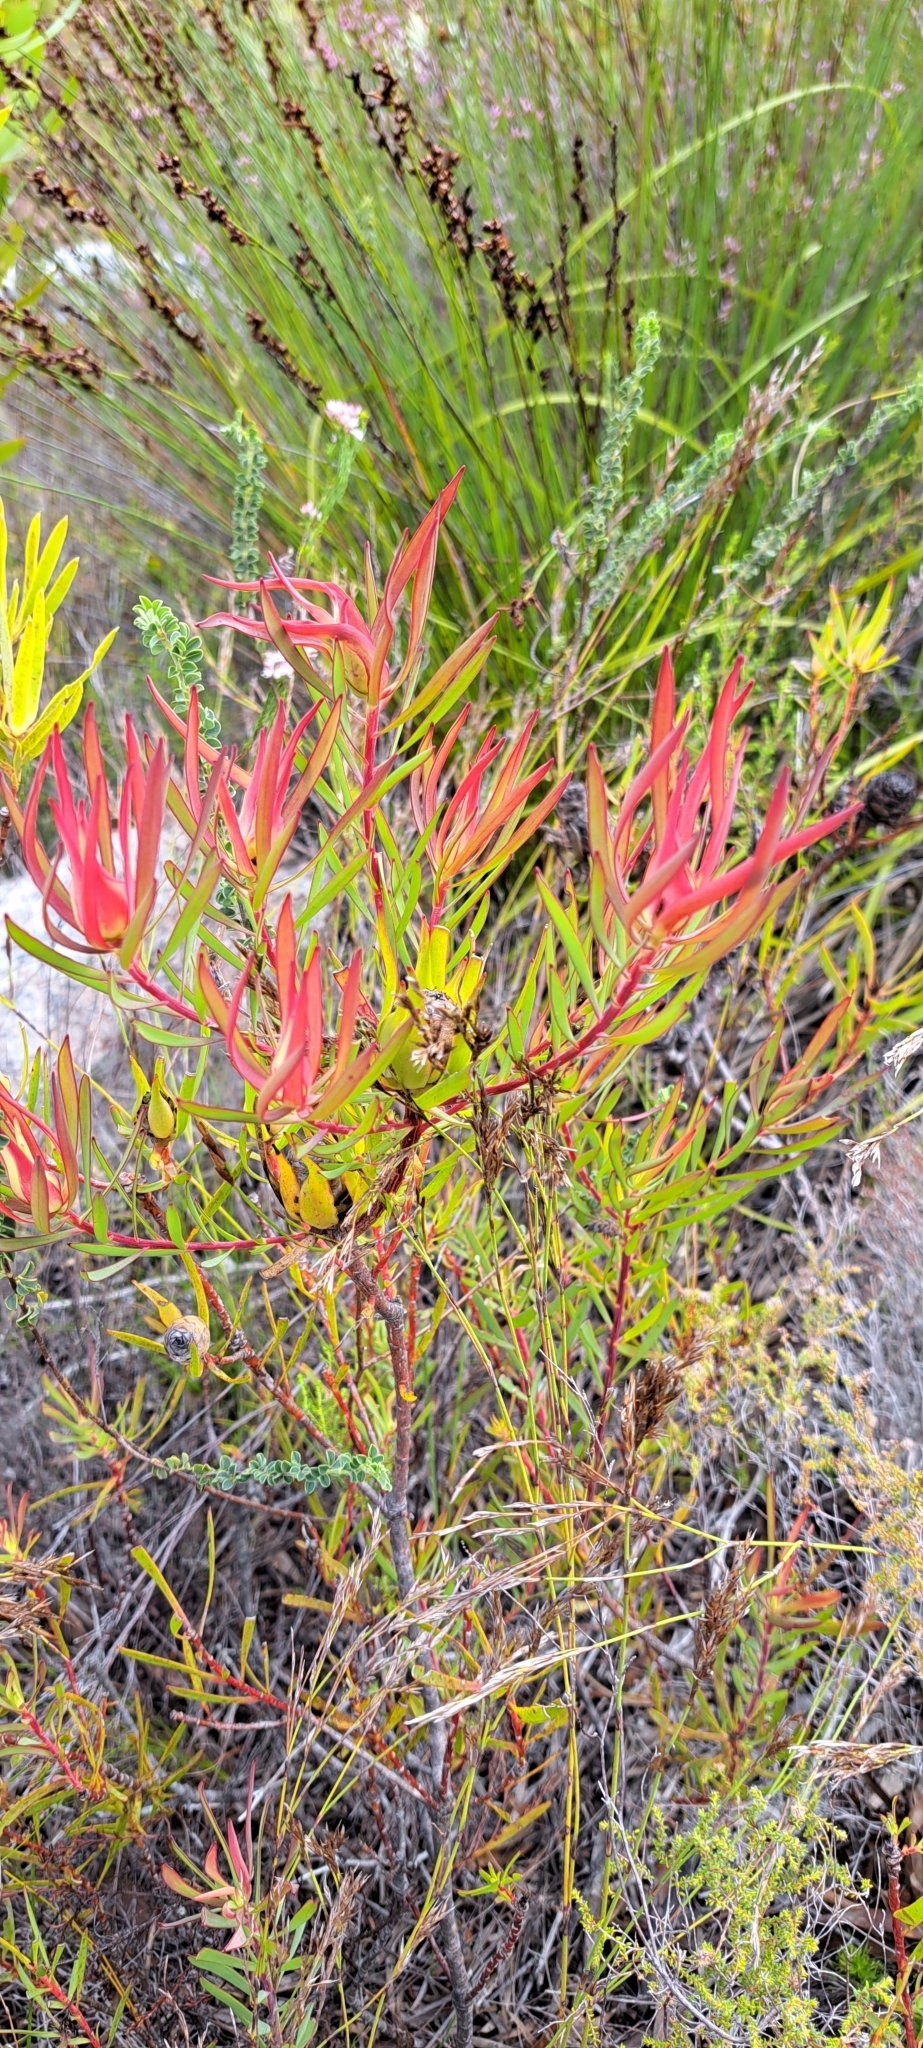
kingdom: Plantae
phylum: Tracheophyta
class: Magnoliopsida
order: Proteales
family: Proteaceae
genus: Leucadendron
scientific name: Leucadendron salignum
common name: Common sunshine conebush
